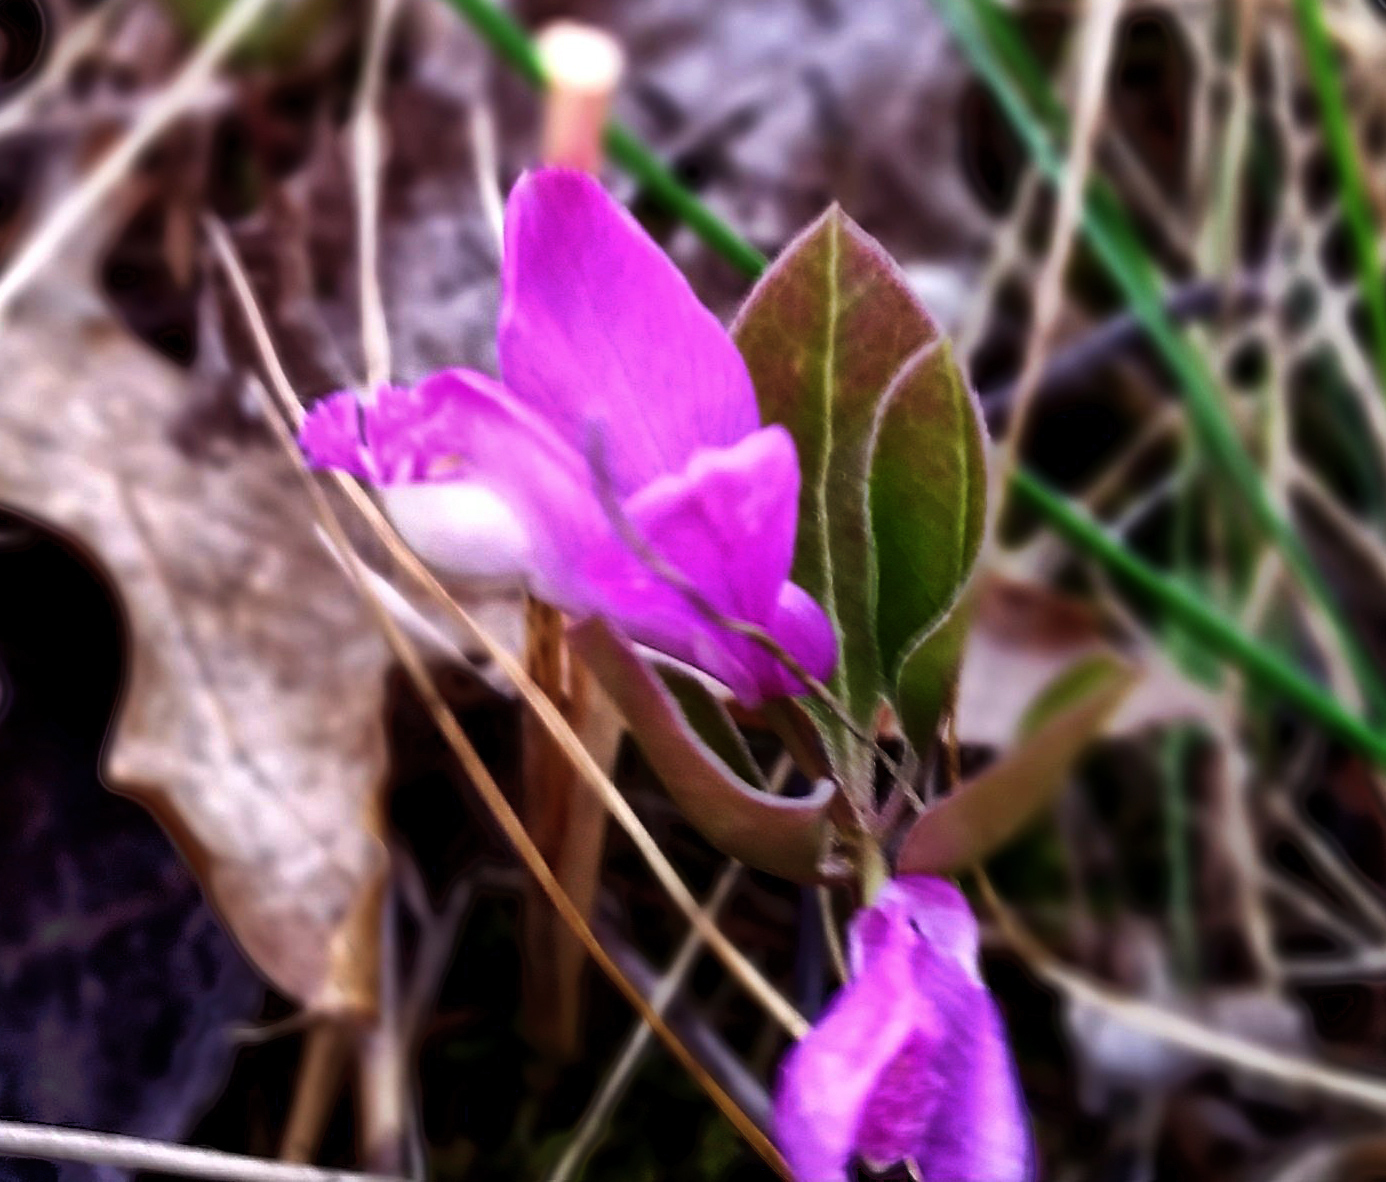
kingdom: Plantae
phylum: Tracheophyta
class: Magnoliopsida
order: Fabales
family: Polygalaceae
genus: Polygaloides
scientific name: Polygaloides paucifolia
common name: Bird-on-the-wing
